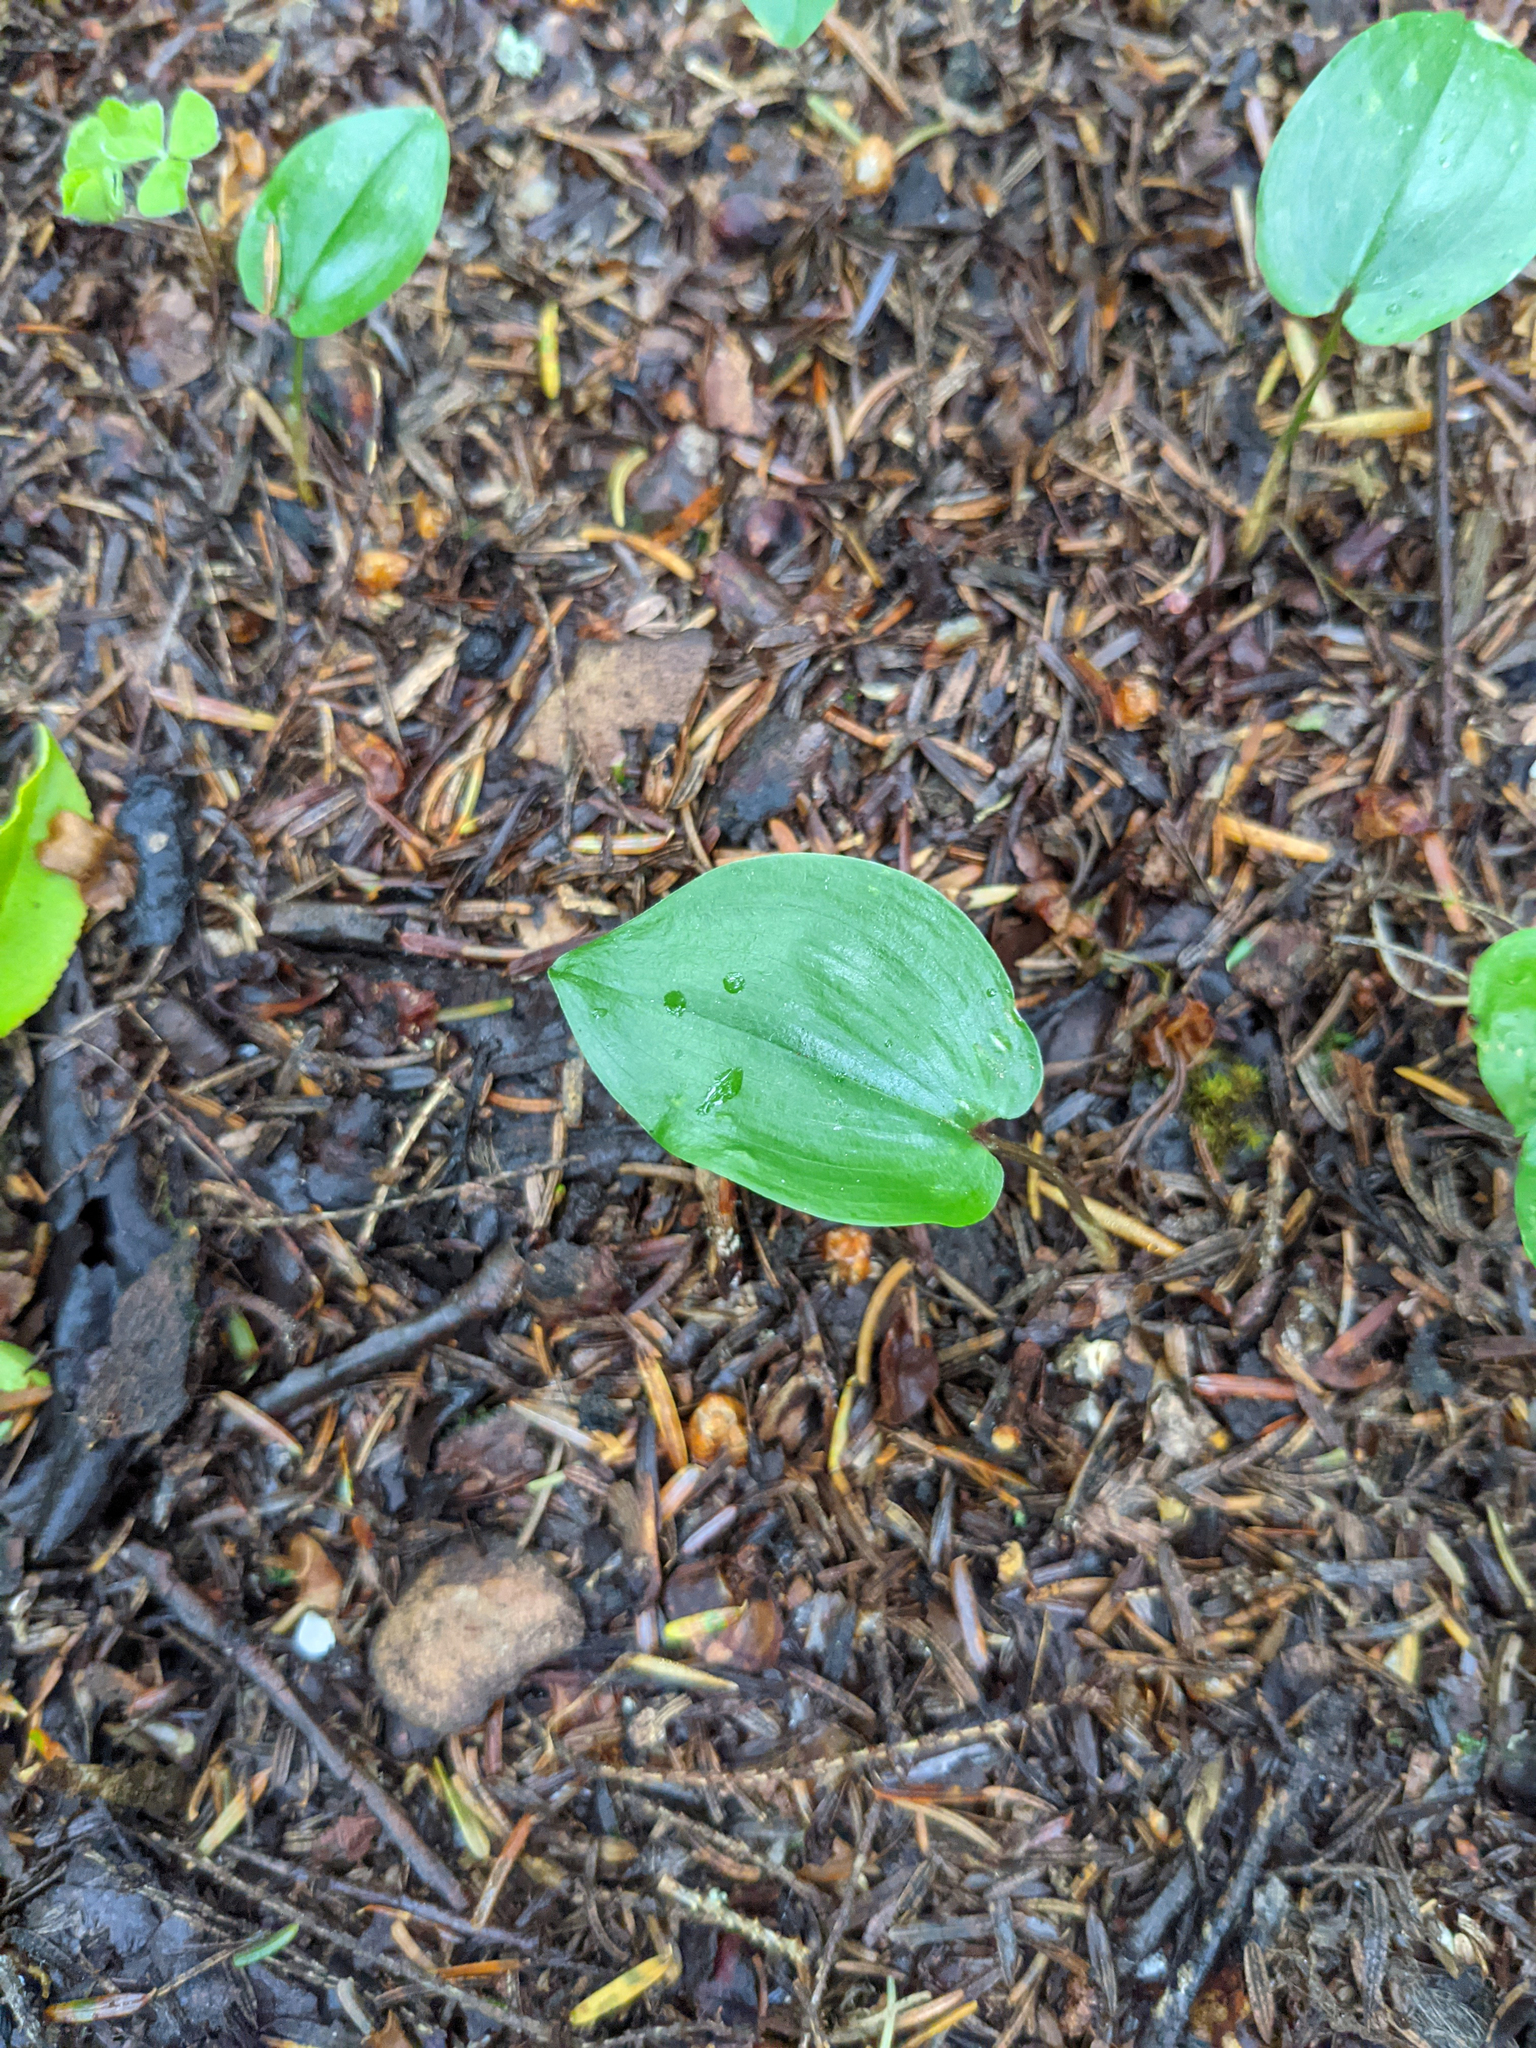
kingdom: Plantae
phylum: Tracheophyta
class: Liliopsida
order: Asparagales
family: Asparagaceae
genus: Maianthemum
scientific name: Maianthemum canadense
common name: False lily-of-the-valley
